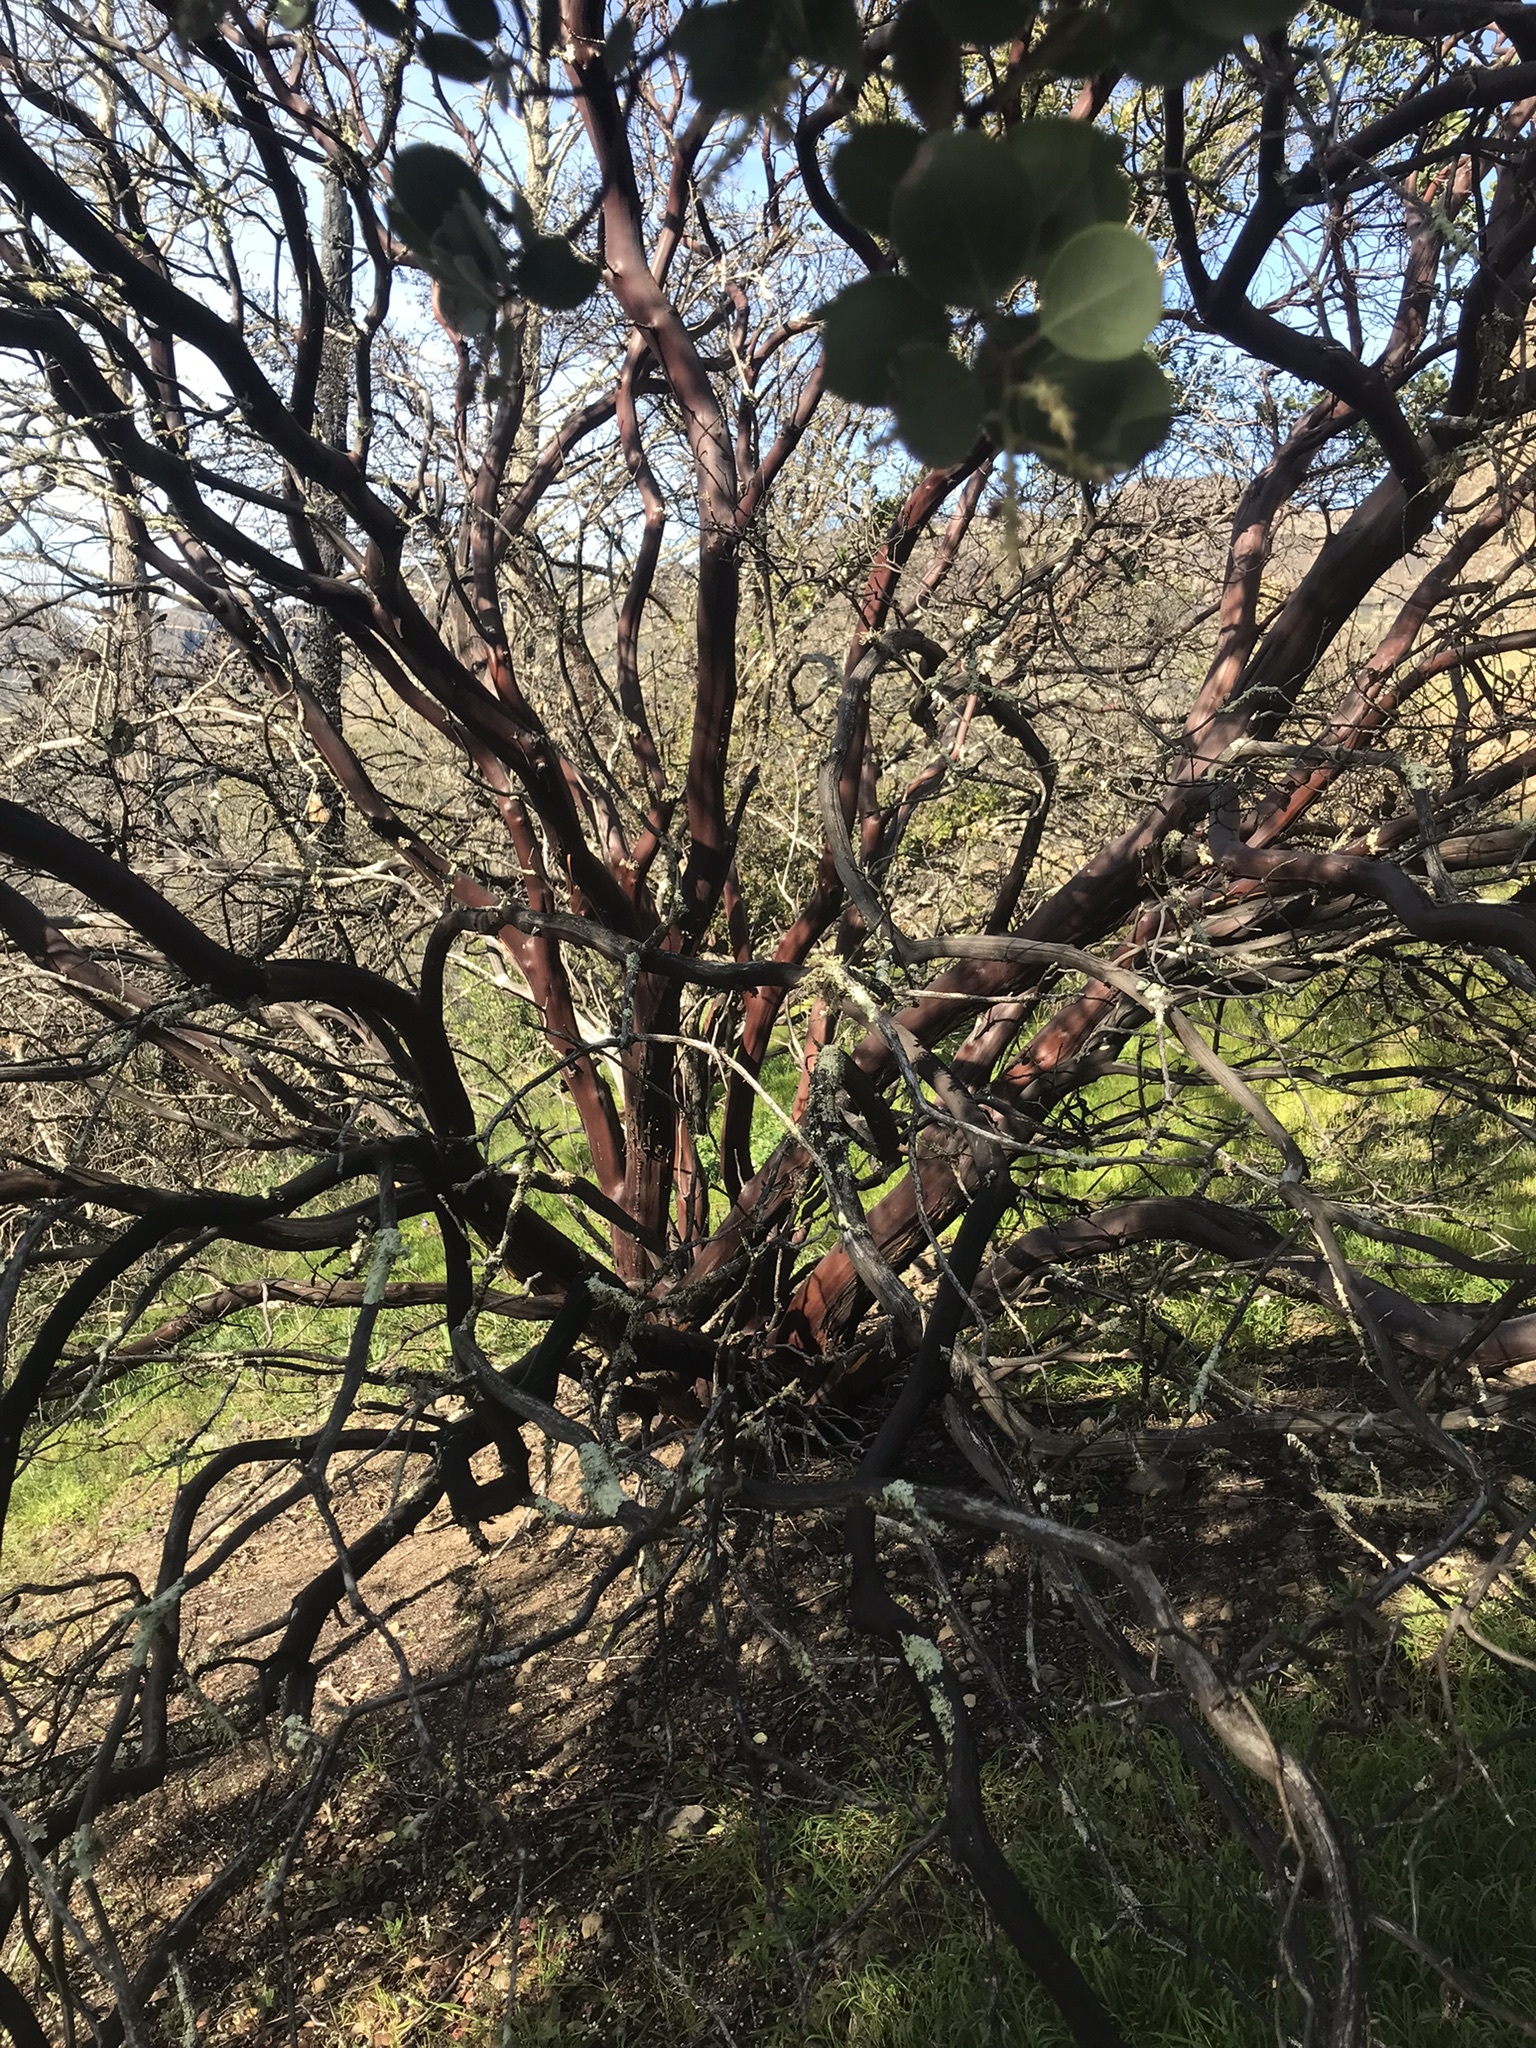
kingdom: Plantae
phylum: Tracheophyta
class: Magnoliopsida
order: Ericales
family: Ericaceae
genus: Arctostaphylos
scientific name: Arctostaphylos manzanita
